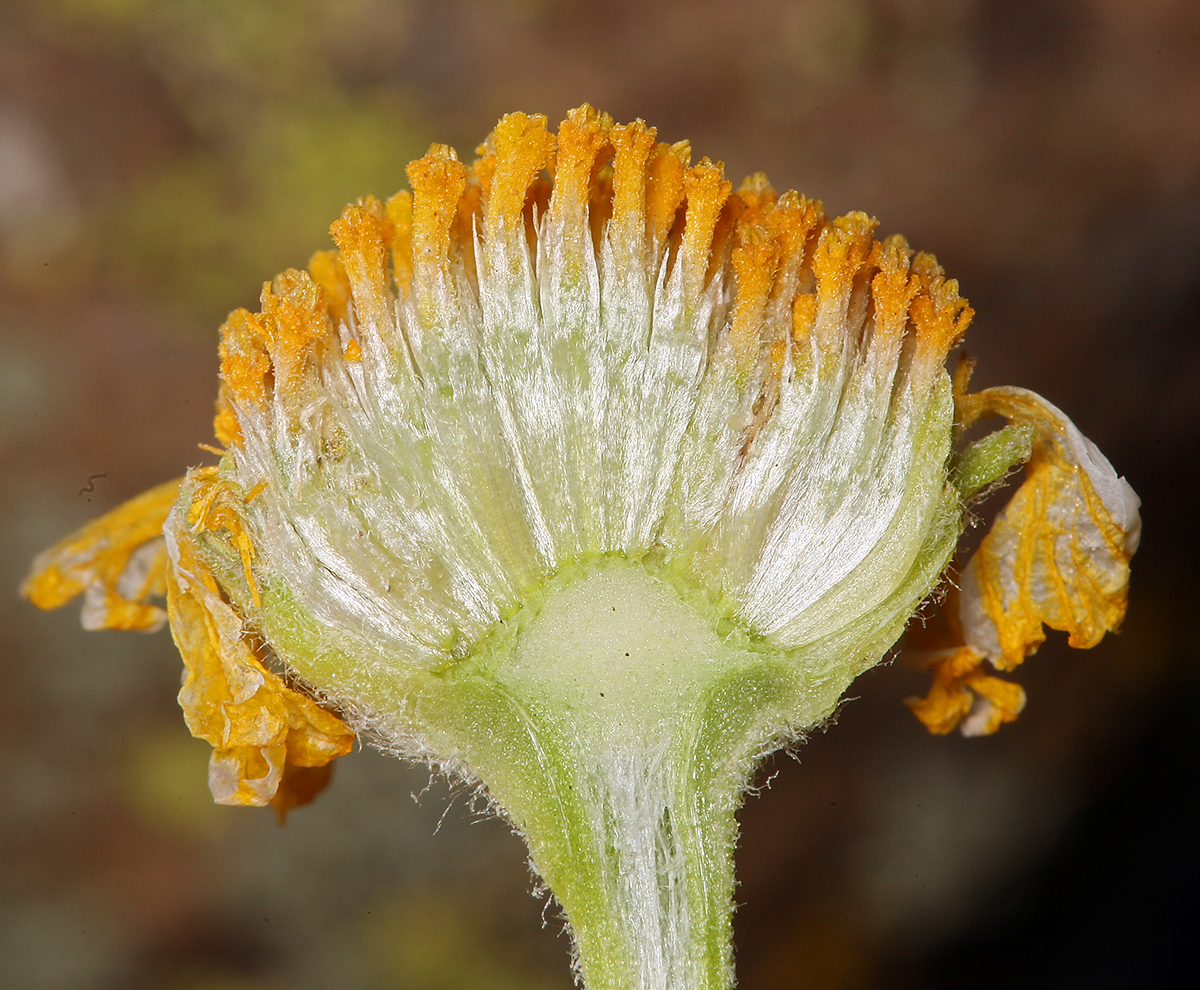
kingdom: Plantae
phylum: Tracheophyta
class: Magnoliopsida
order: Asterales
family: Asteraceae
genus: Hymenoxys
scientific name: Hymenoxys cooperi
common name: Cooper's bitterweed
